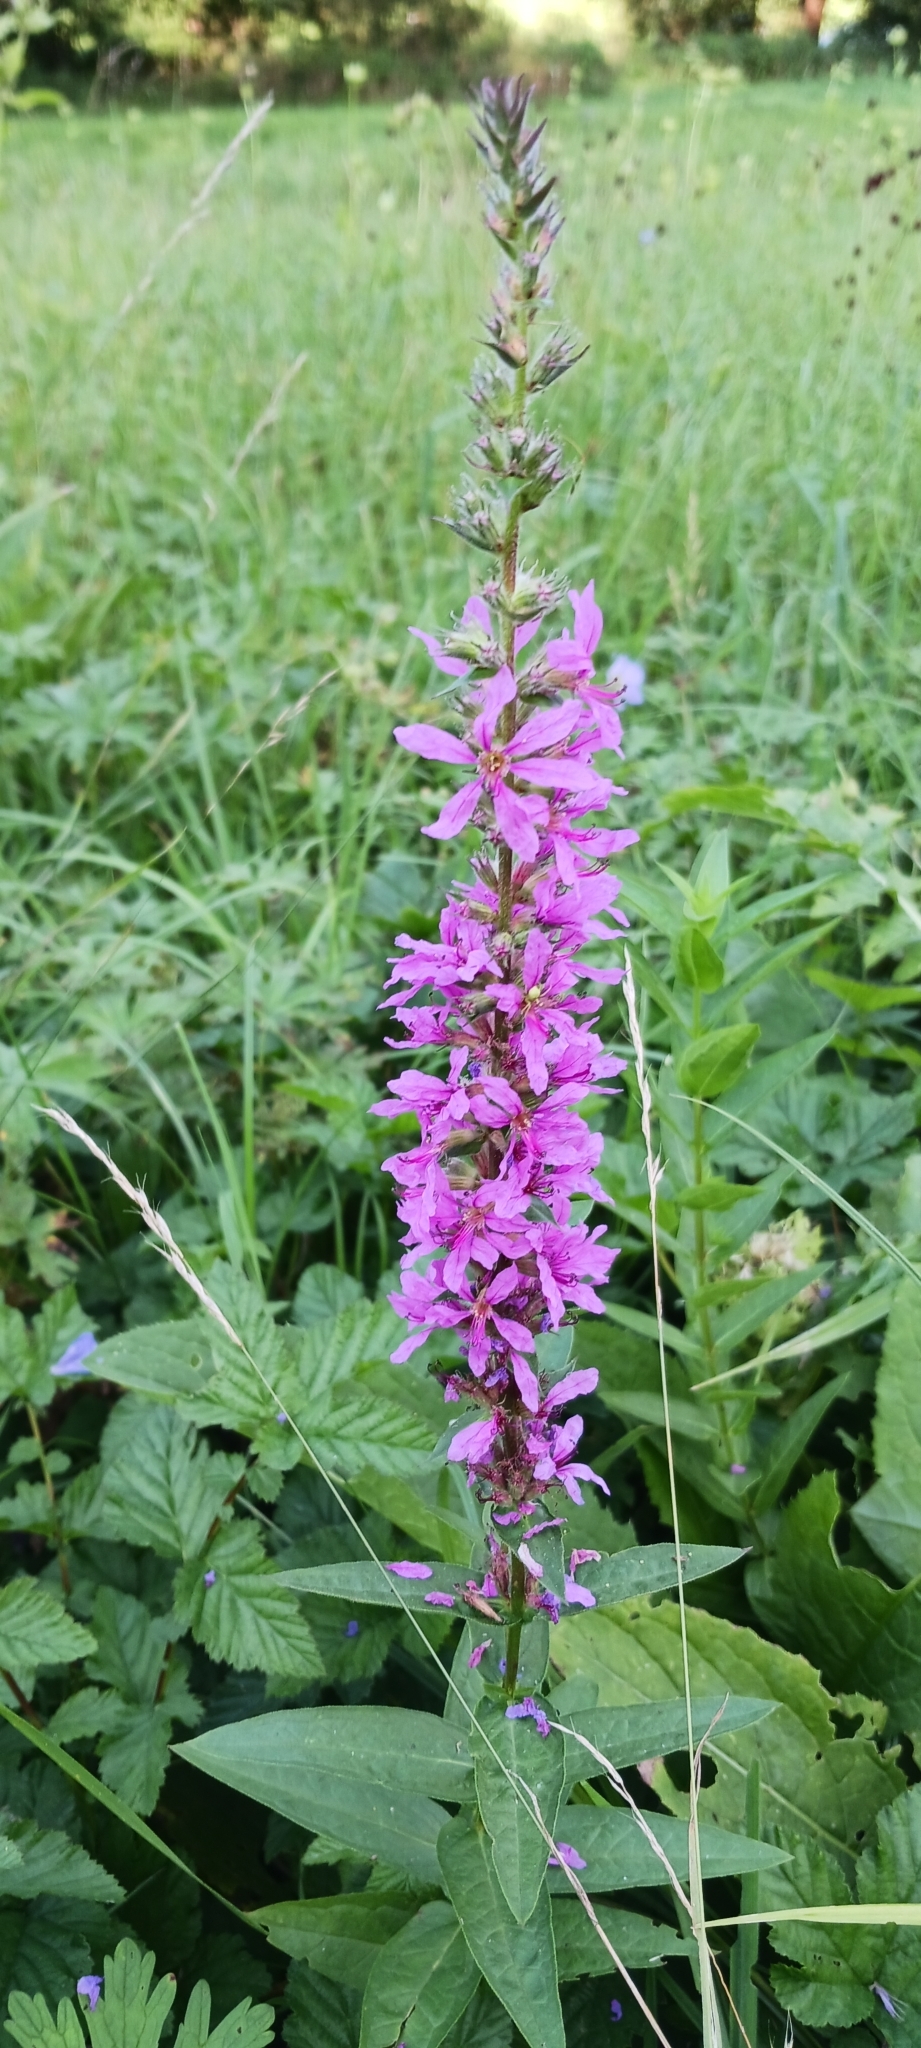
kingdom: Plantae
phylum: Tracheophyta
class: Magnoliopsida
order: Myrtales
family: Lythraceae
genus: Lythrum
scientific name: Lythrum salicaria
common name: Purple loosestrife
